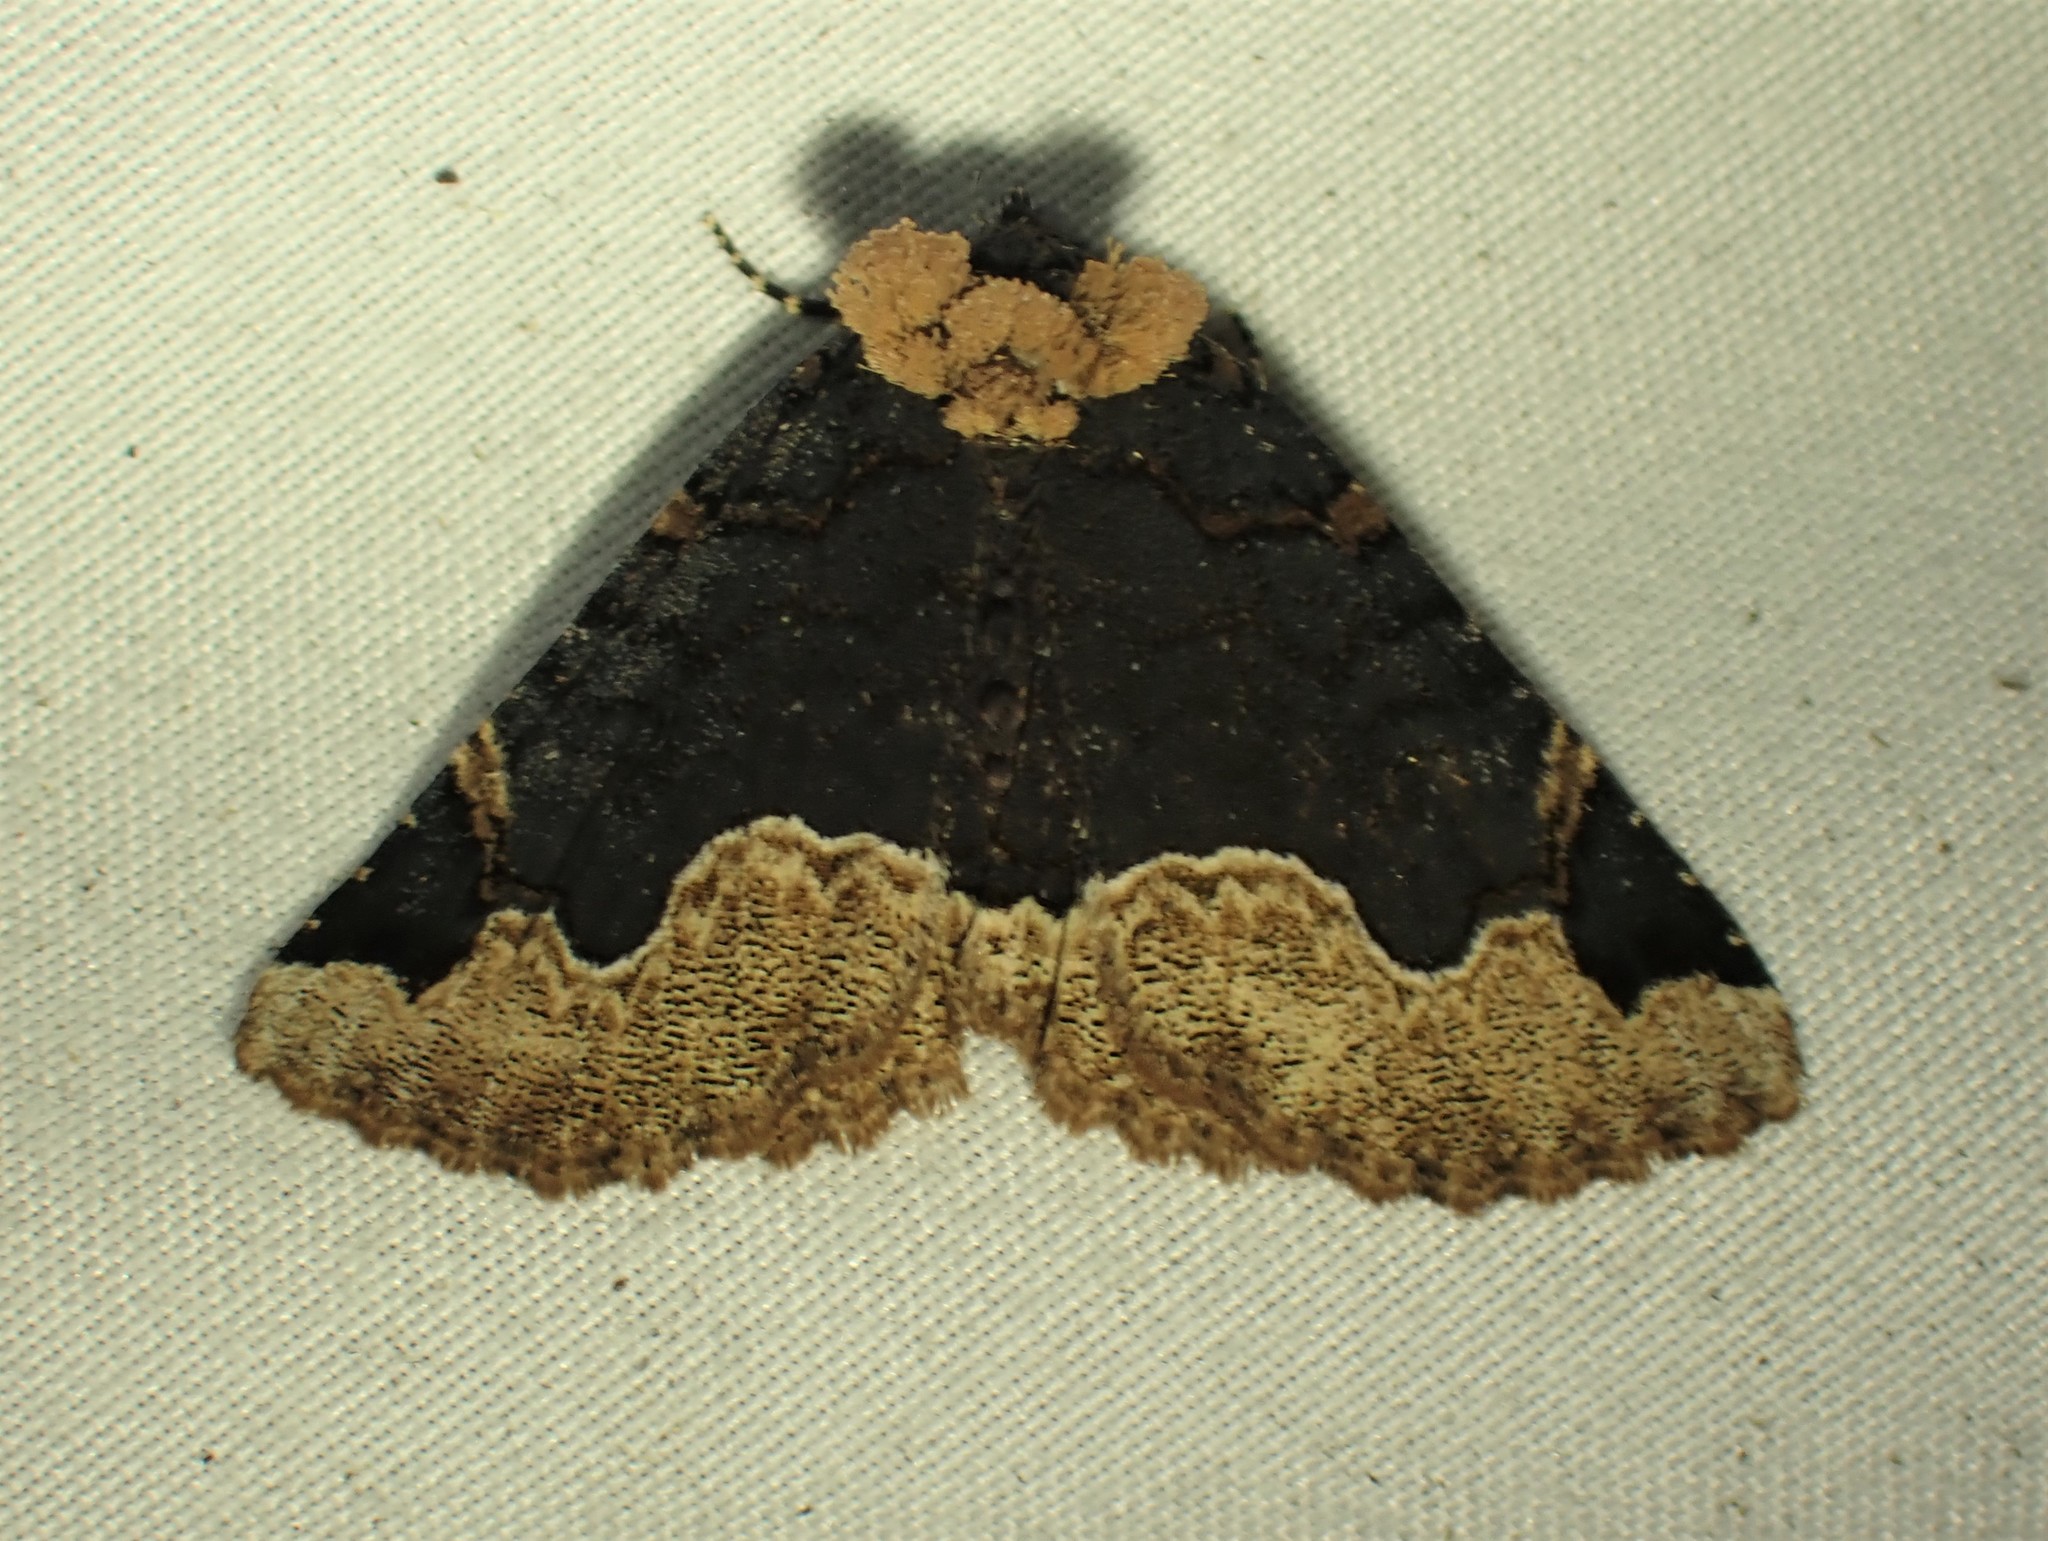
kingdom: Animalia
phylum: Arthropoda
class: Insecta
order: Lepidoptera
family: Erebidae
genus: Zale
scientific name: Zale horrida
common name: Horrid zale moth
